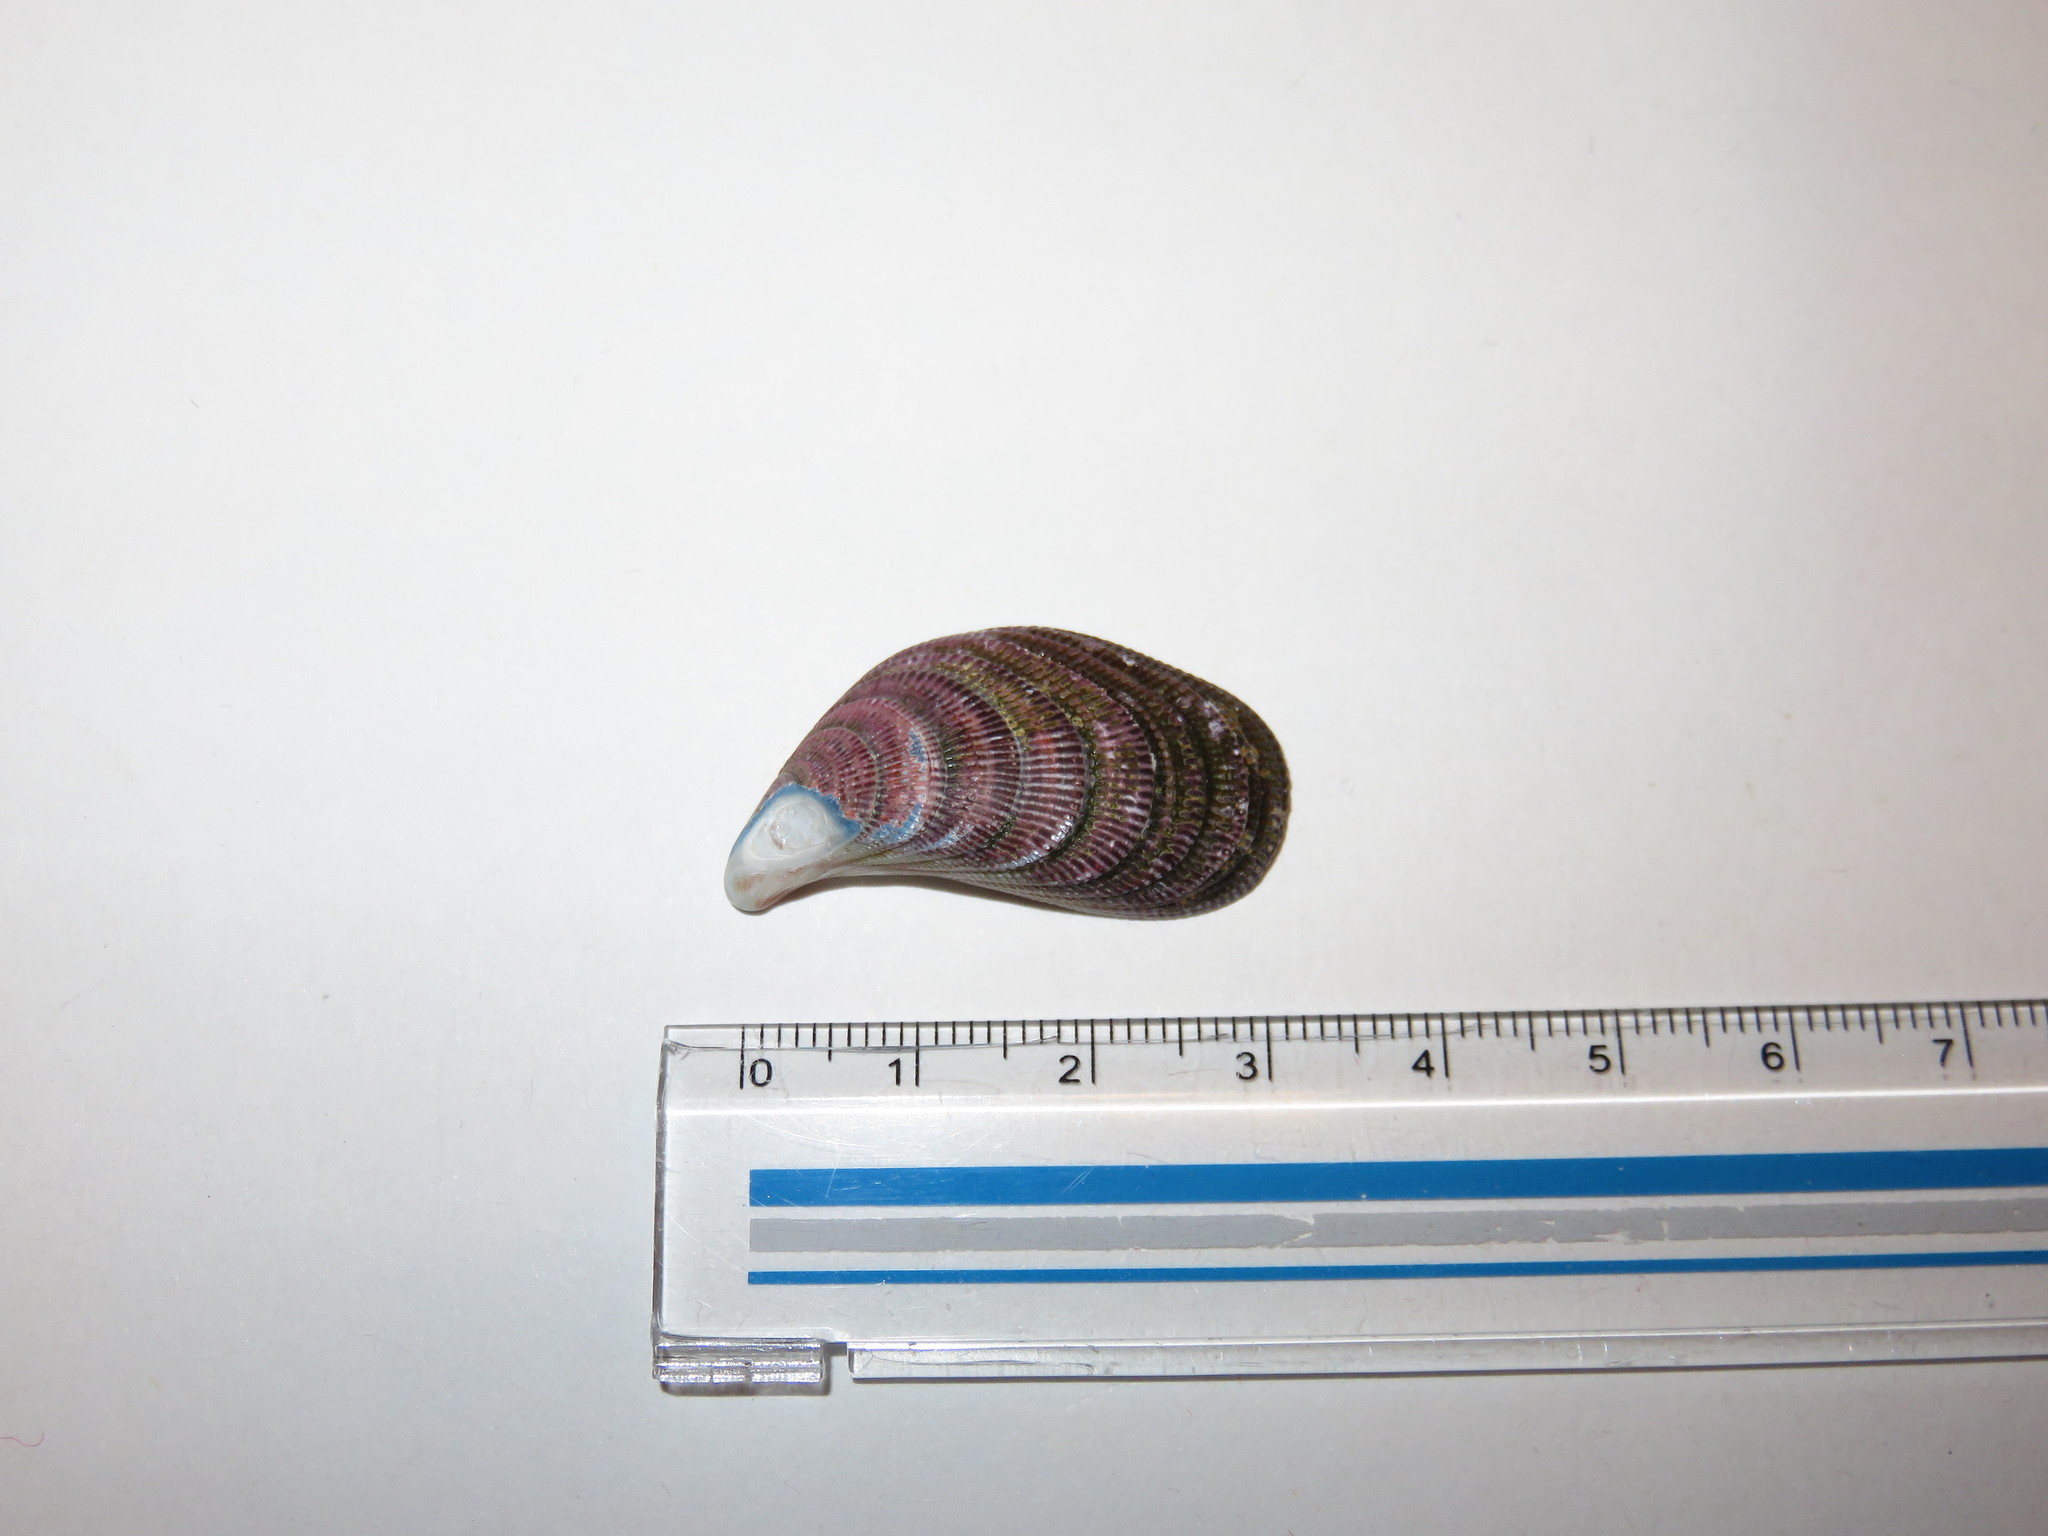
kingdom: Animalia
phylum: Mollusca
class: Bivalvia
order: Mytilida
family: Mytilidae
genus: Septifer
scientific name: Septifer bilocularis
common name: Ledge mussel
